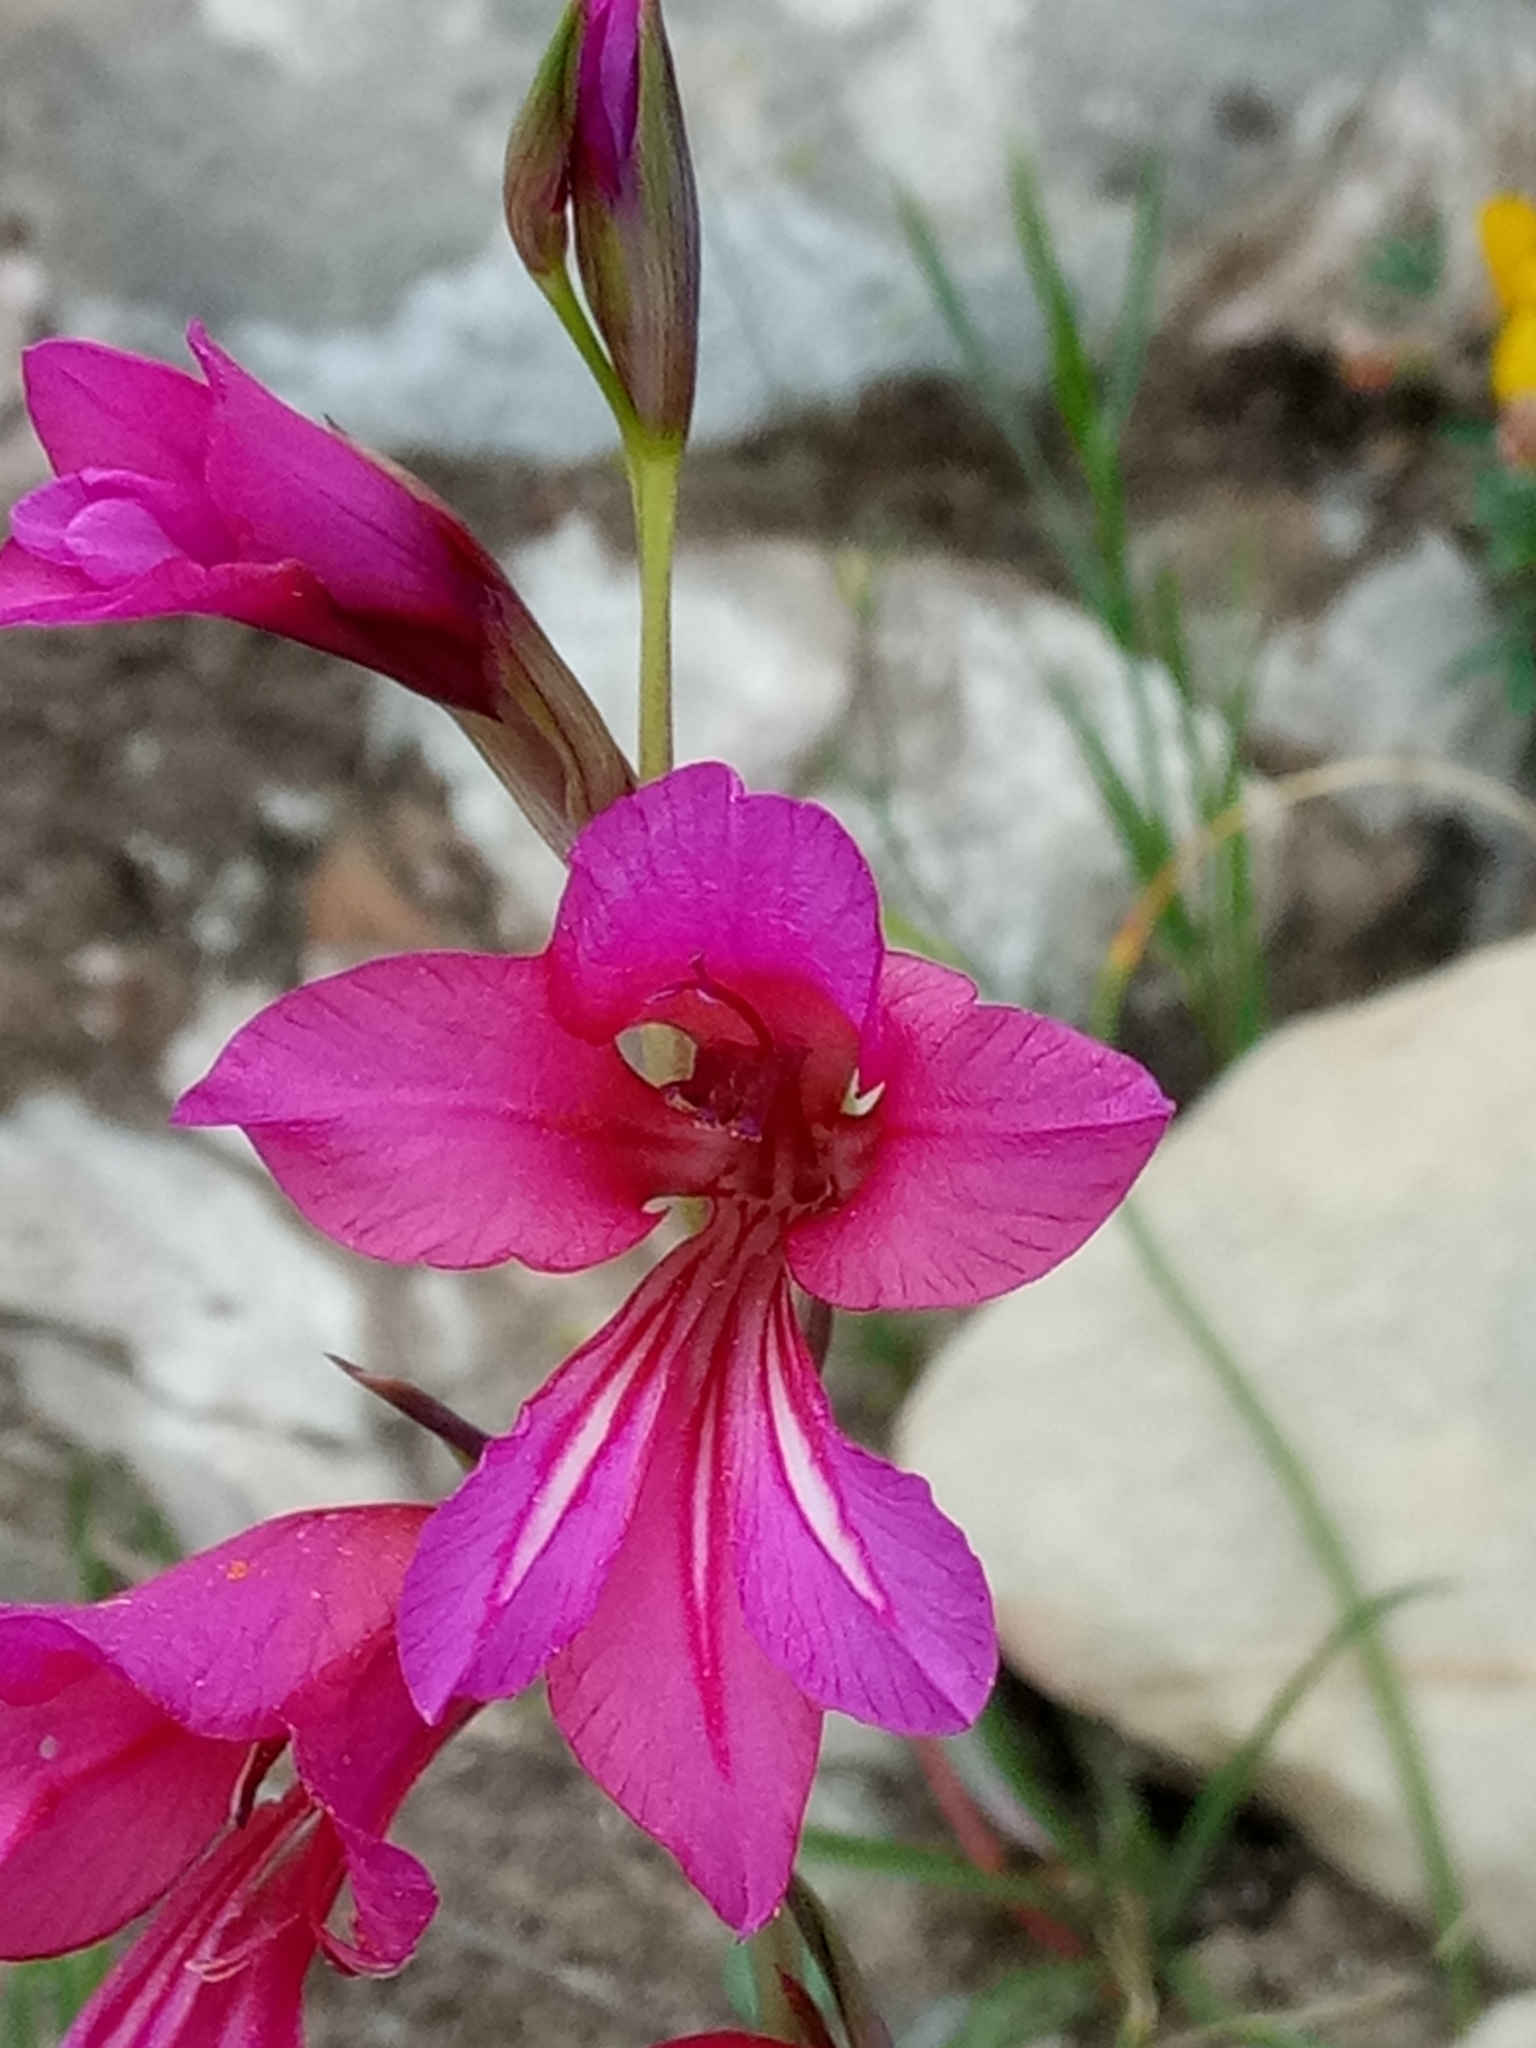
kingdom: Plantae
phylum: Tracheophyta
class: Liliopsida
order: Asparagales
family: Iridaceae
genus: Gladiolus
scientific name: Gladiolus dubius
